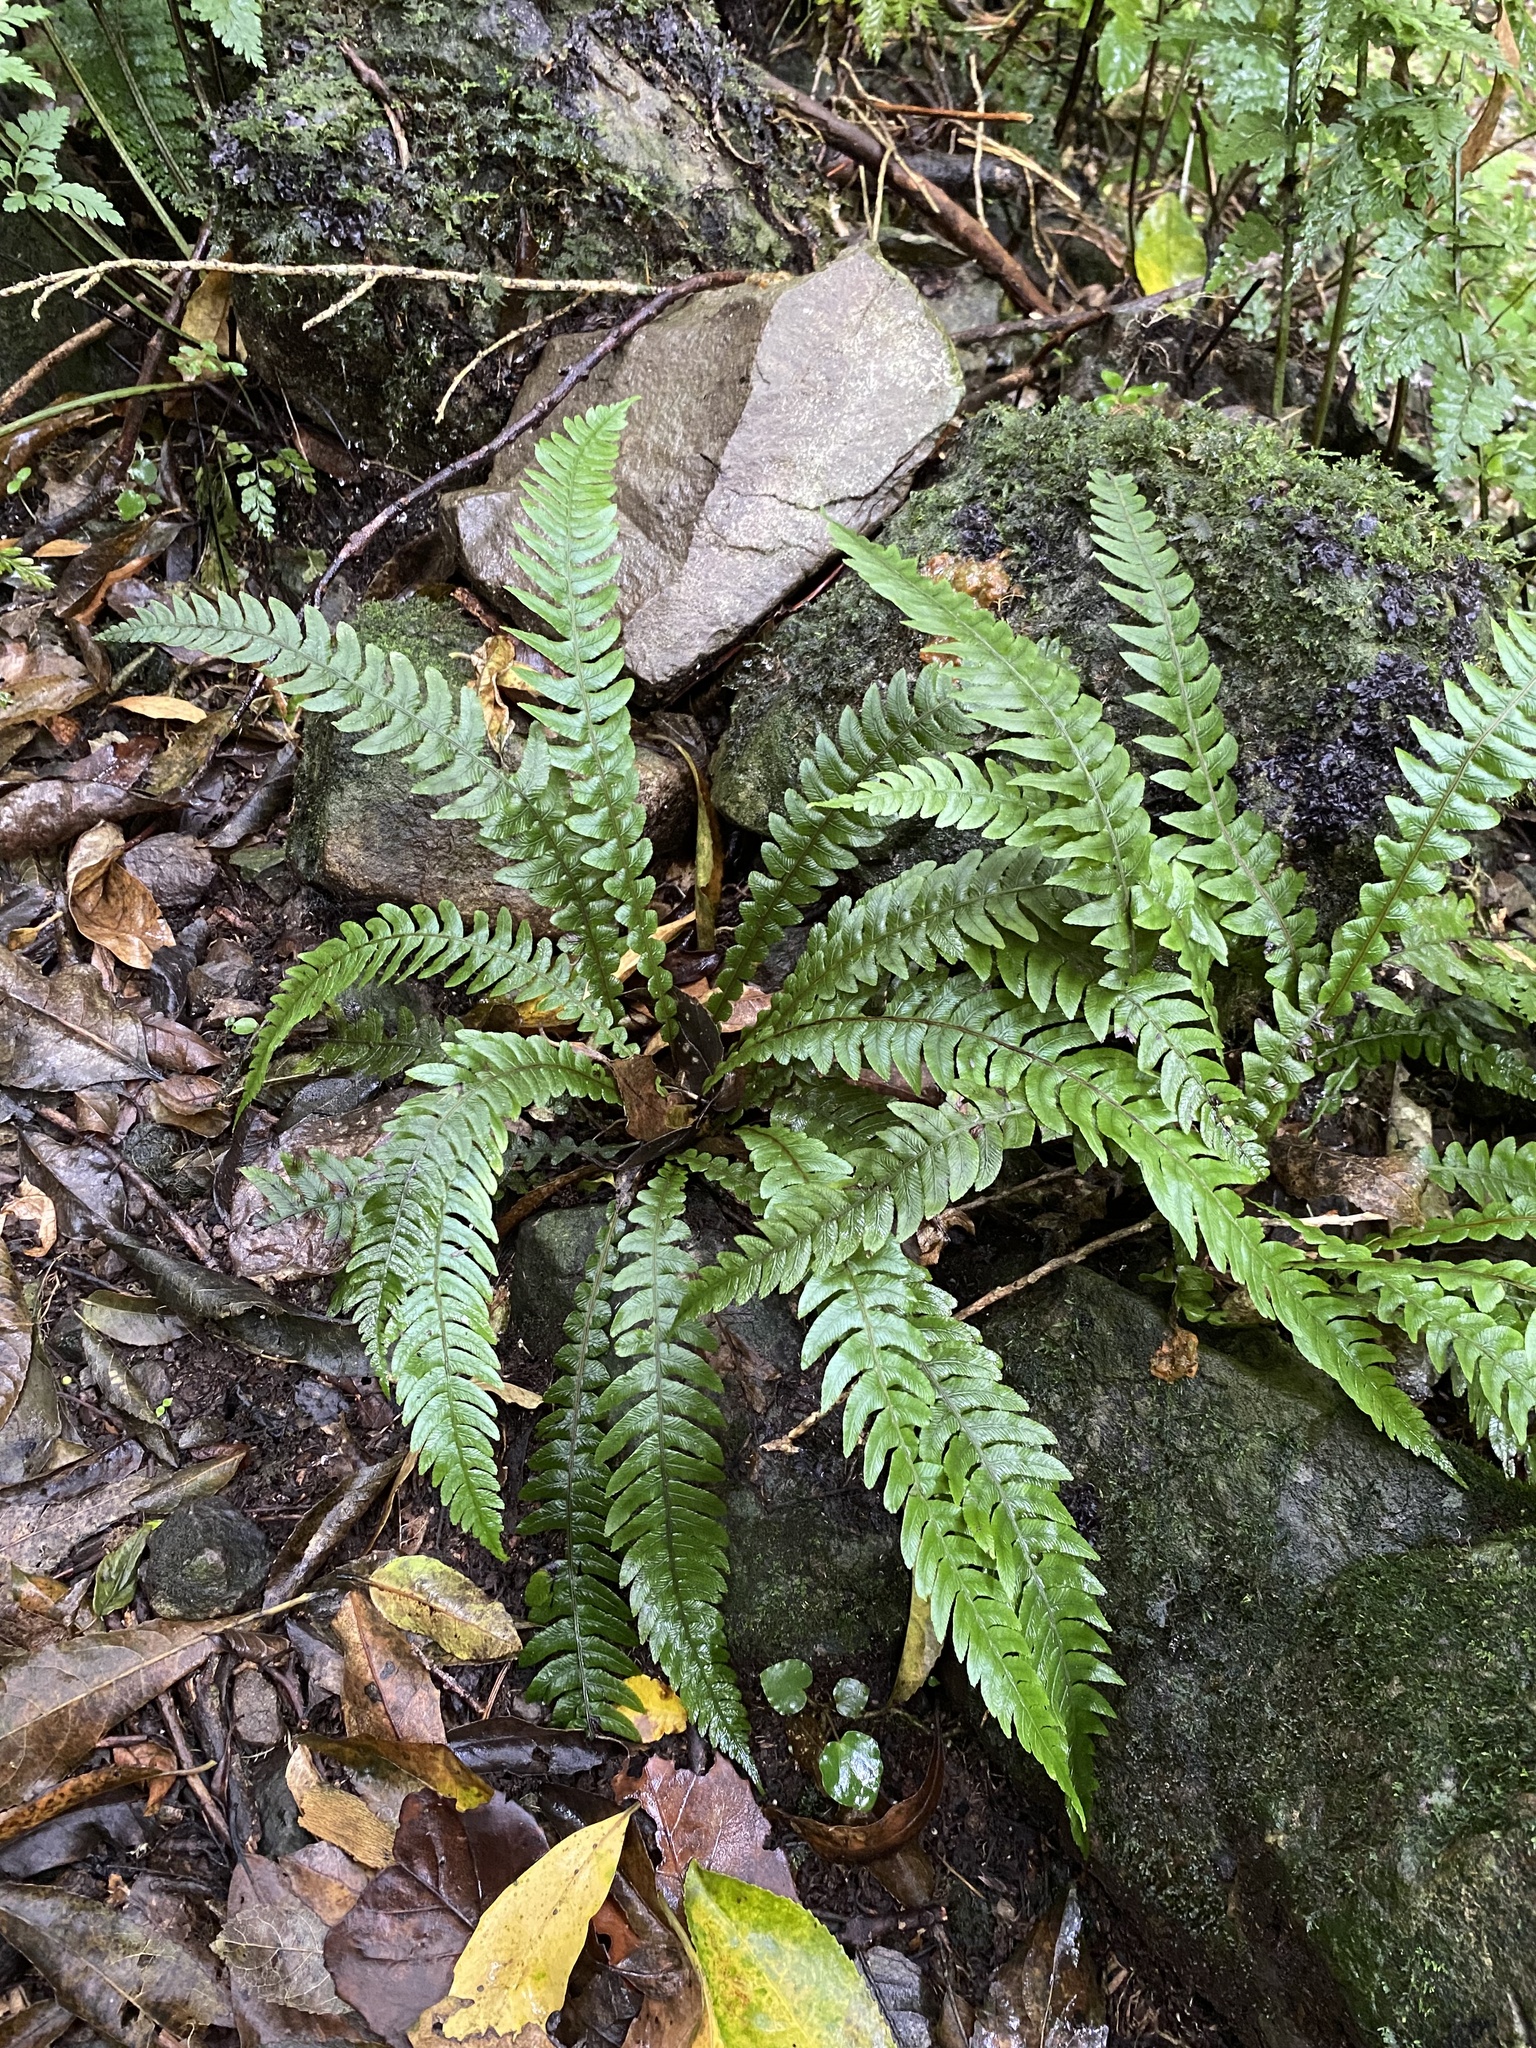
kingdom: Plantae
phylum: Tracheophyta
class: Polypodiopsida
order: Polypodiales
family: Blechnaceae
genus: Austroblechnum
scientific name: Austroblechnum lanceolatum
